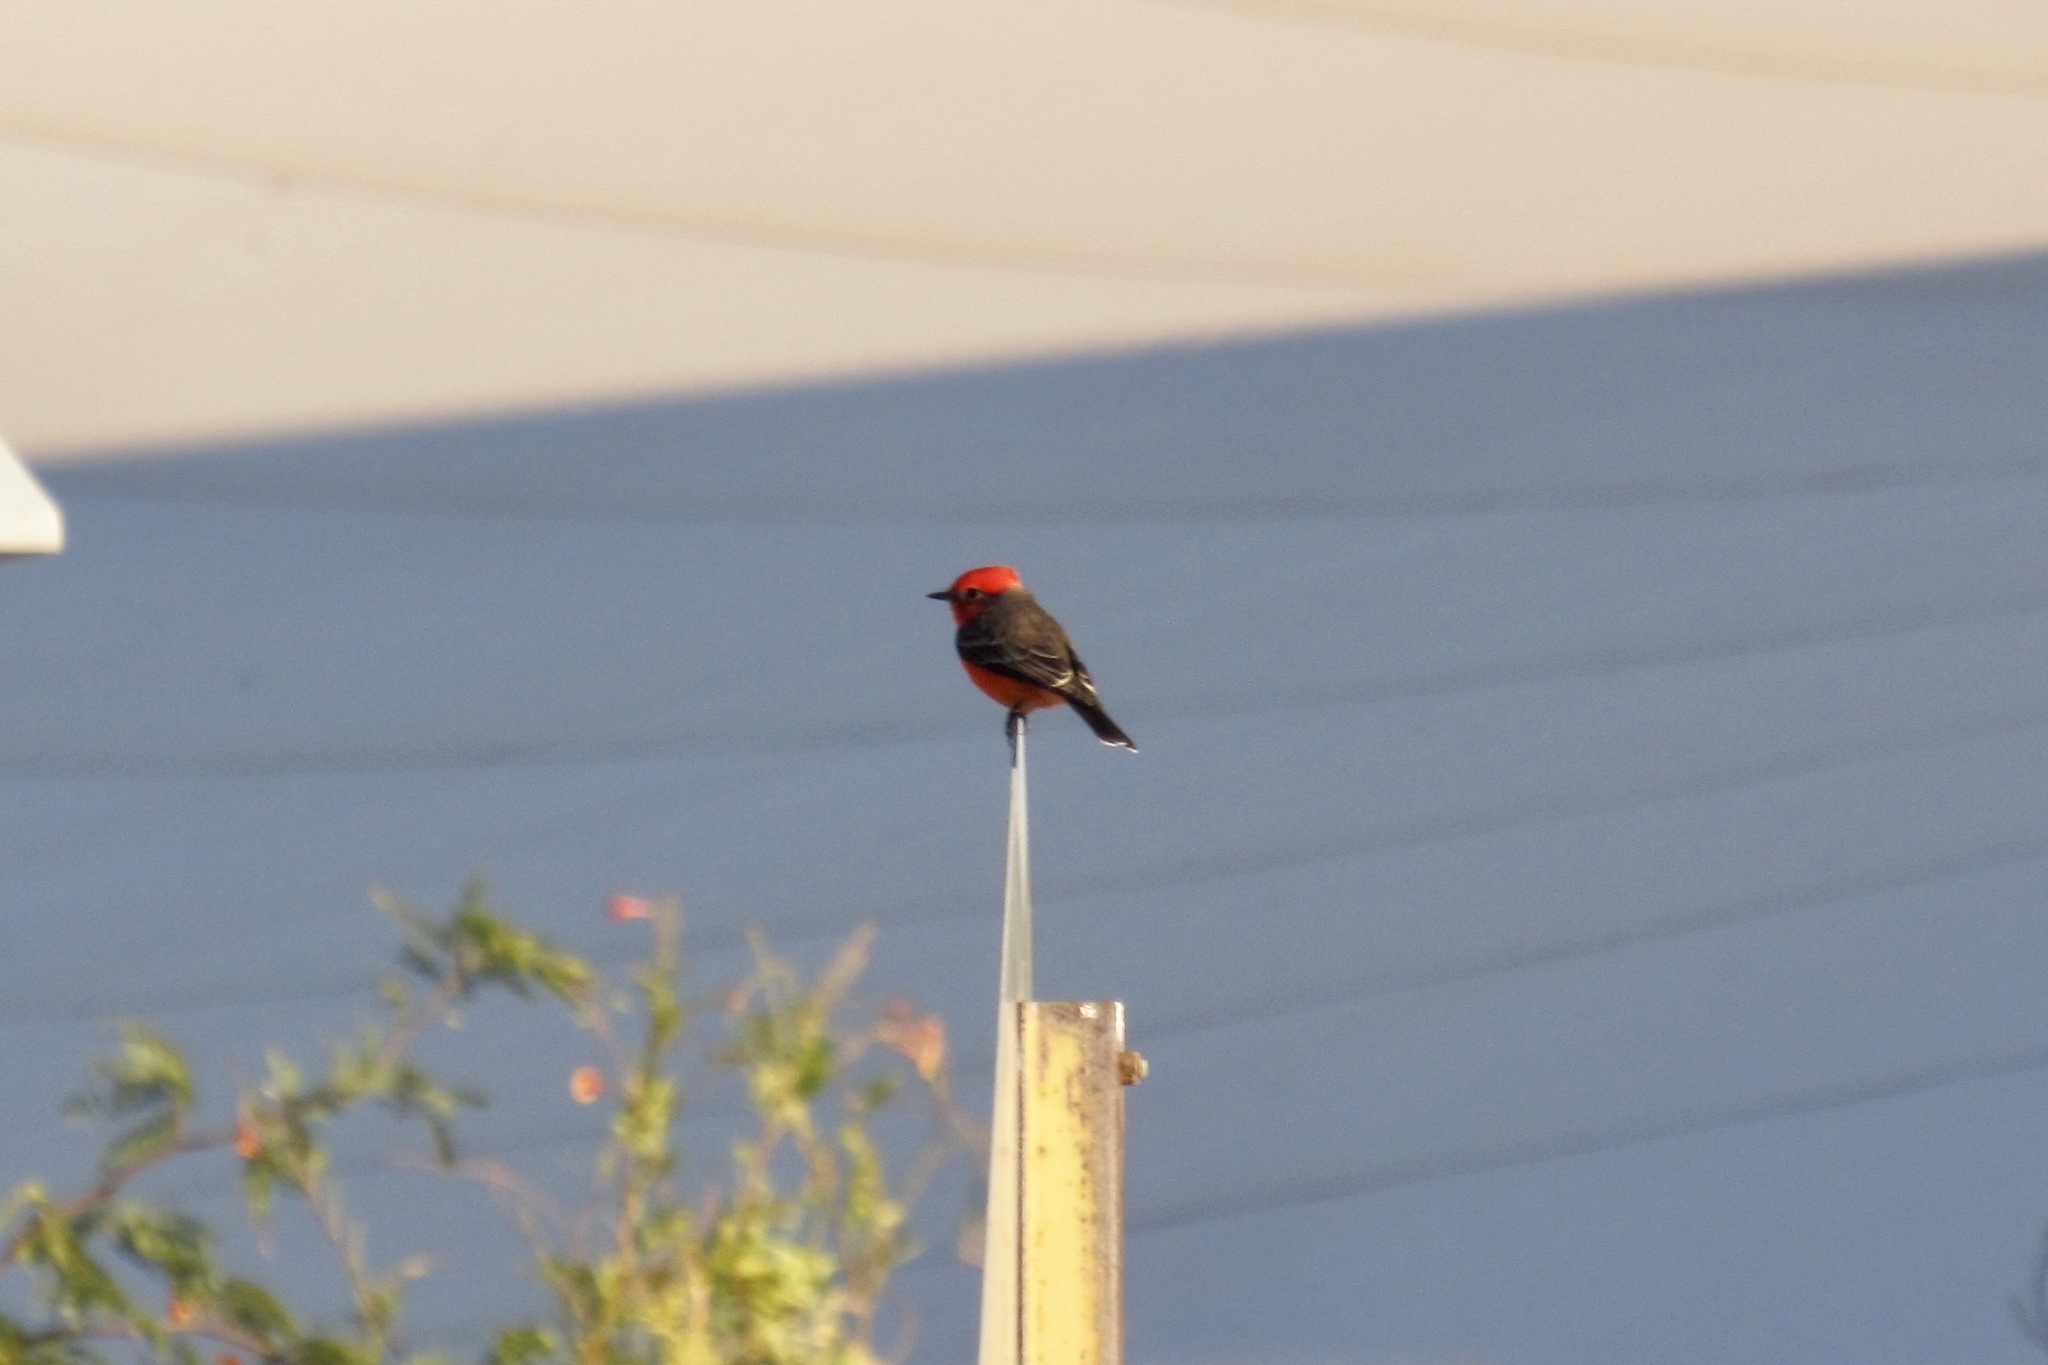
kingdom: Animalia
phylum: Chordata
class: Aves
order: Passeriformes
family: Tyrannidae
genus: Pyrocephalus
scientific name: Pyrocephalus rubinus
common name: Vermilion flycatcher
